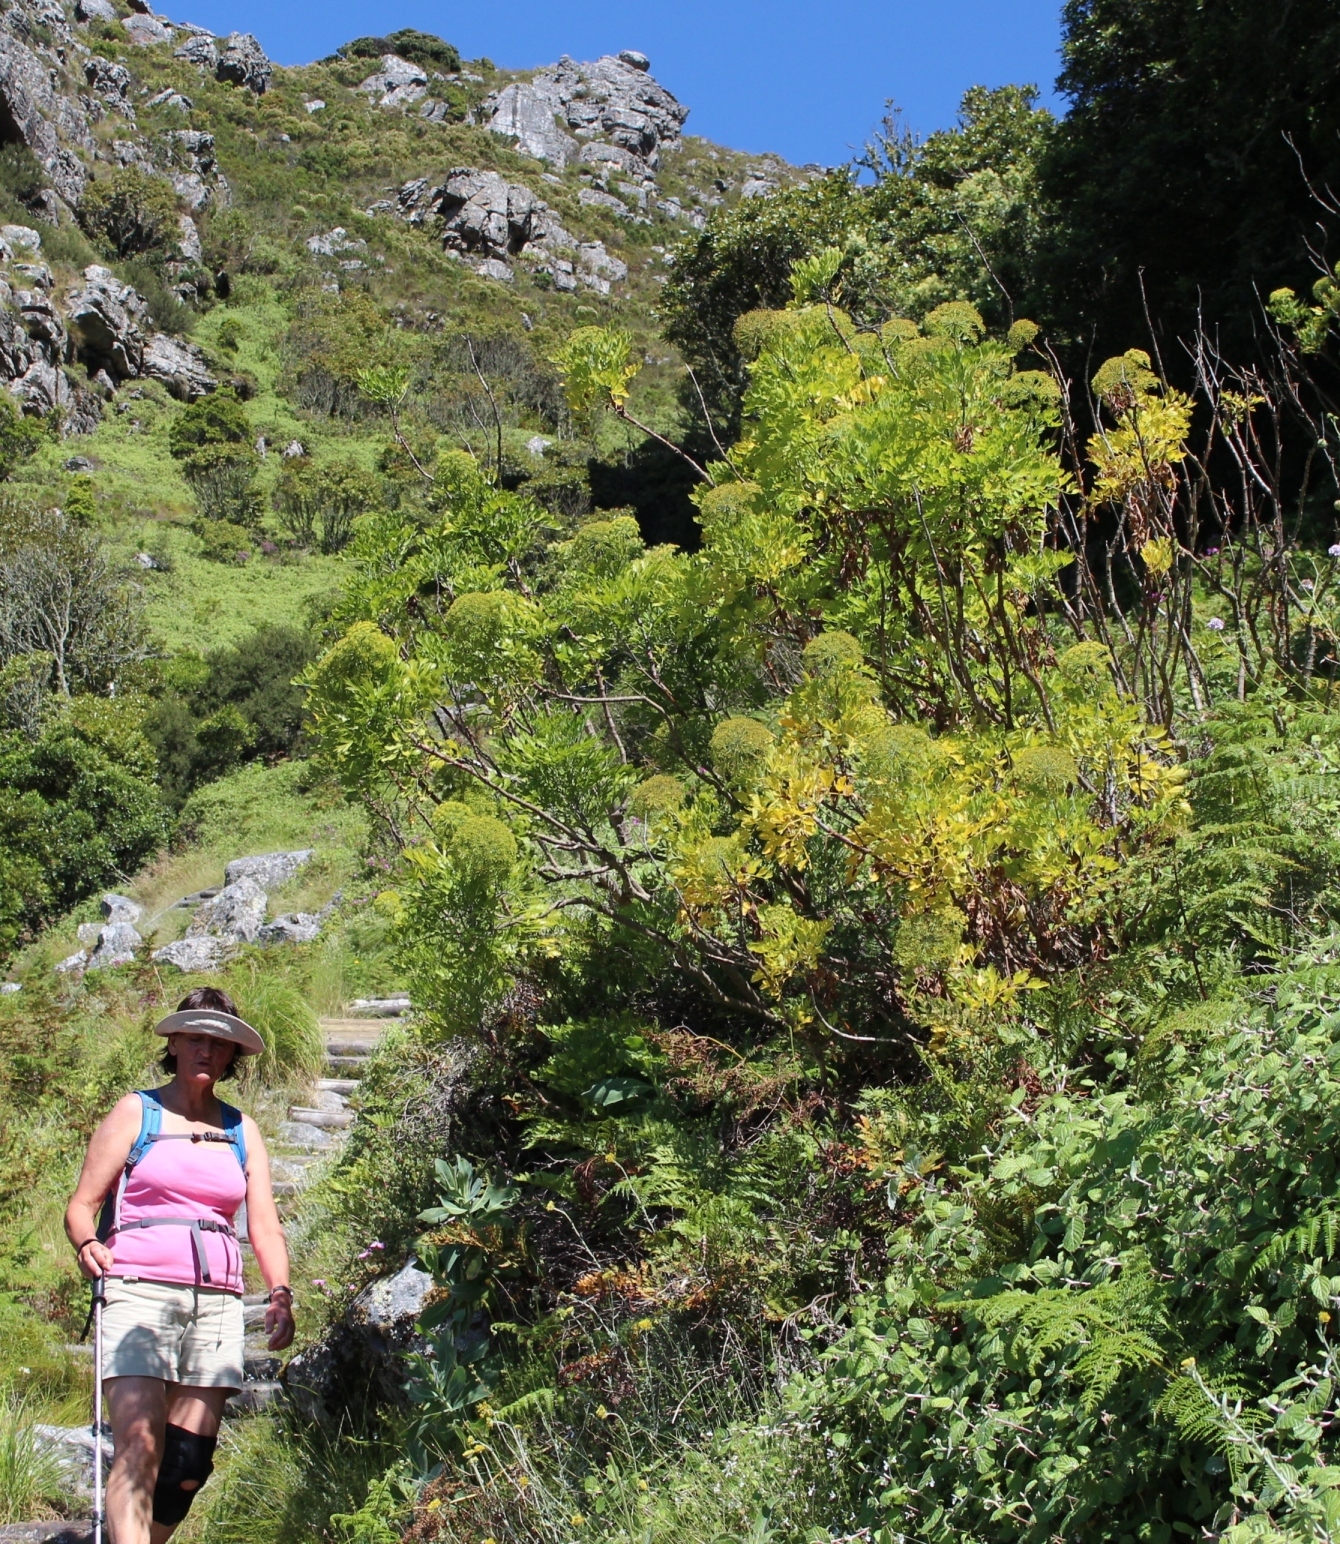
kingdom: Plantae
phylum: Tracheophyta
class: Magnoliopsida
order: Apiales
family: Apiaceae
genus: Notobubon
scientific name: Notobubon galbanum
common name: Blisterbush
